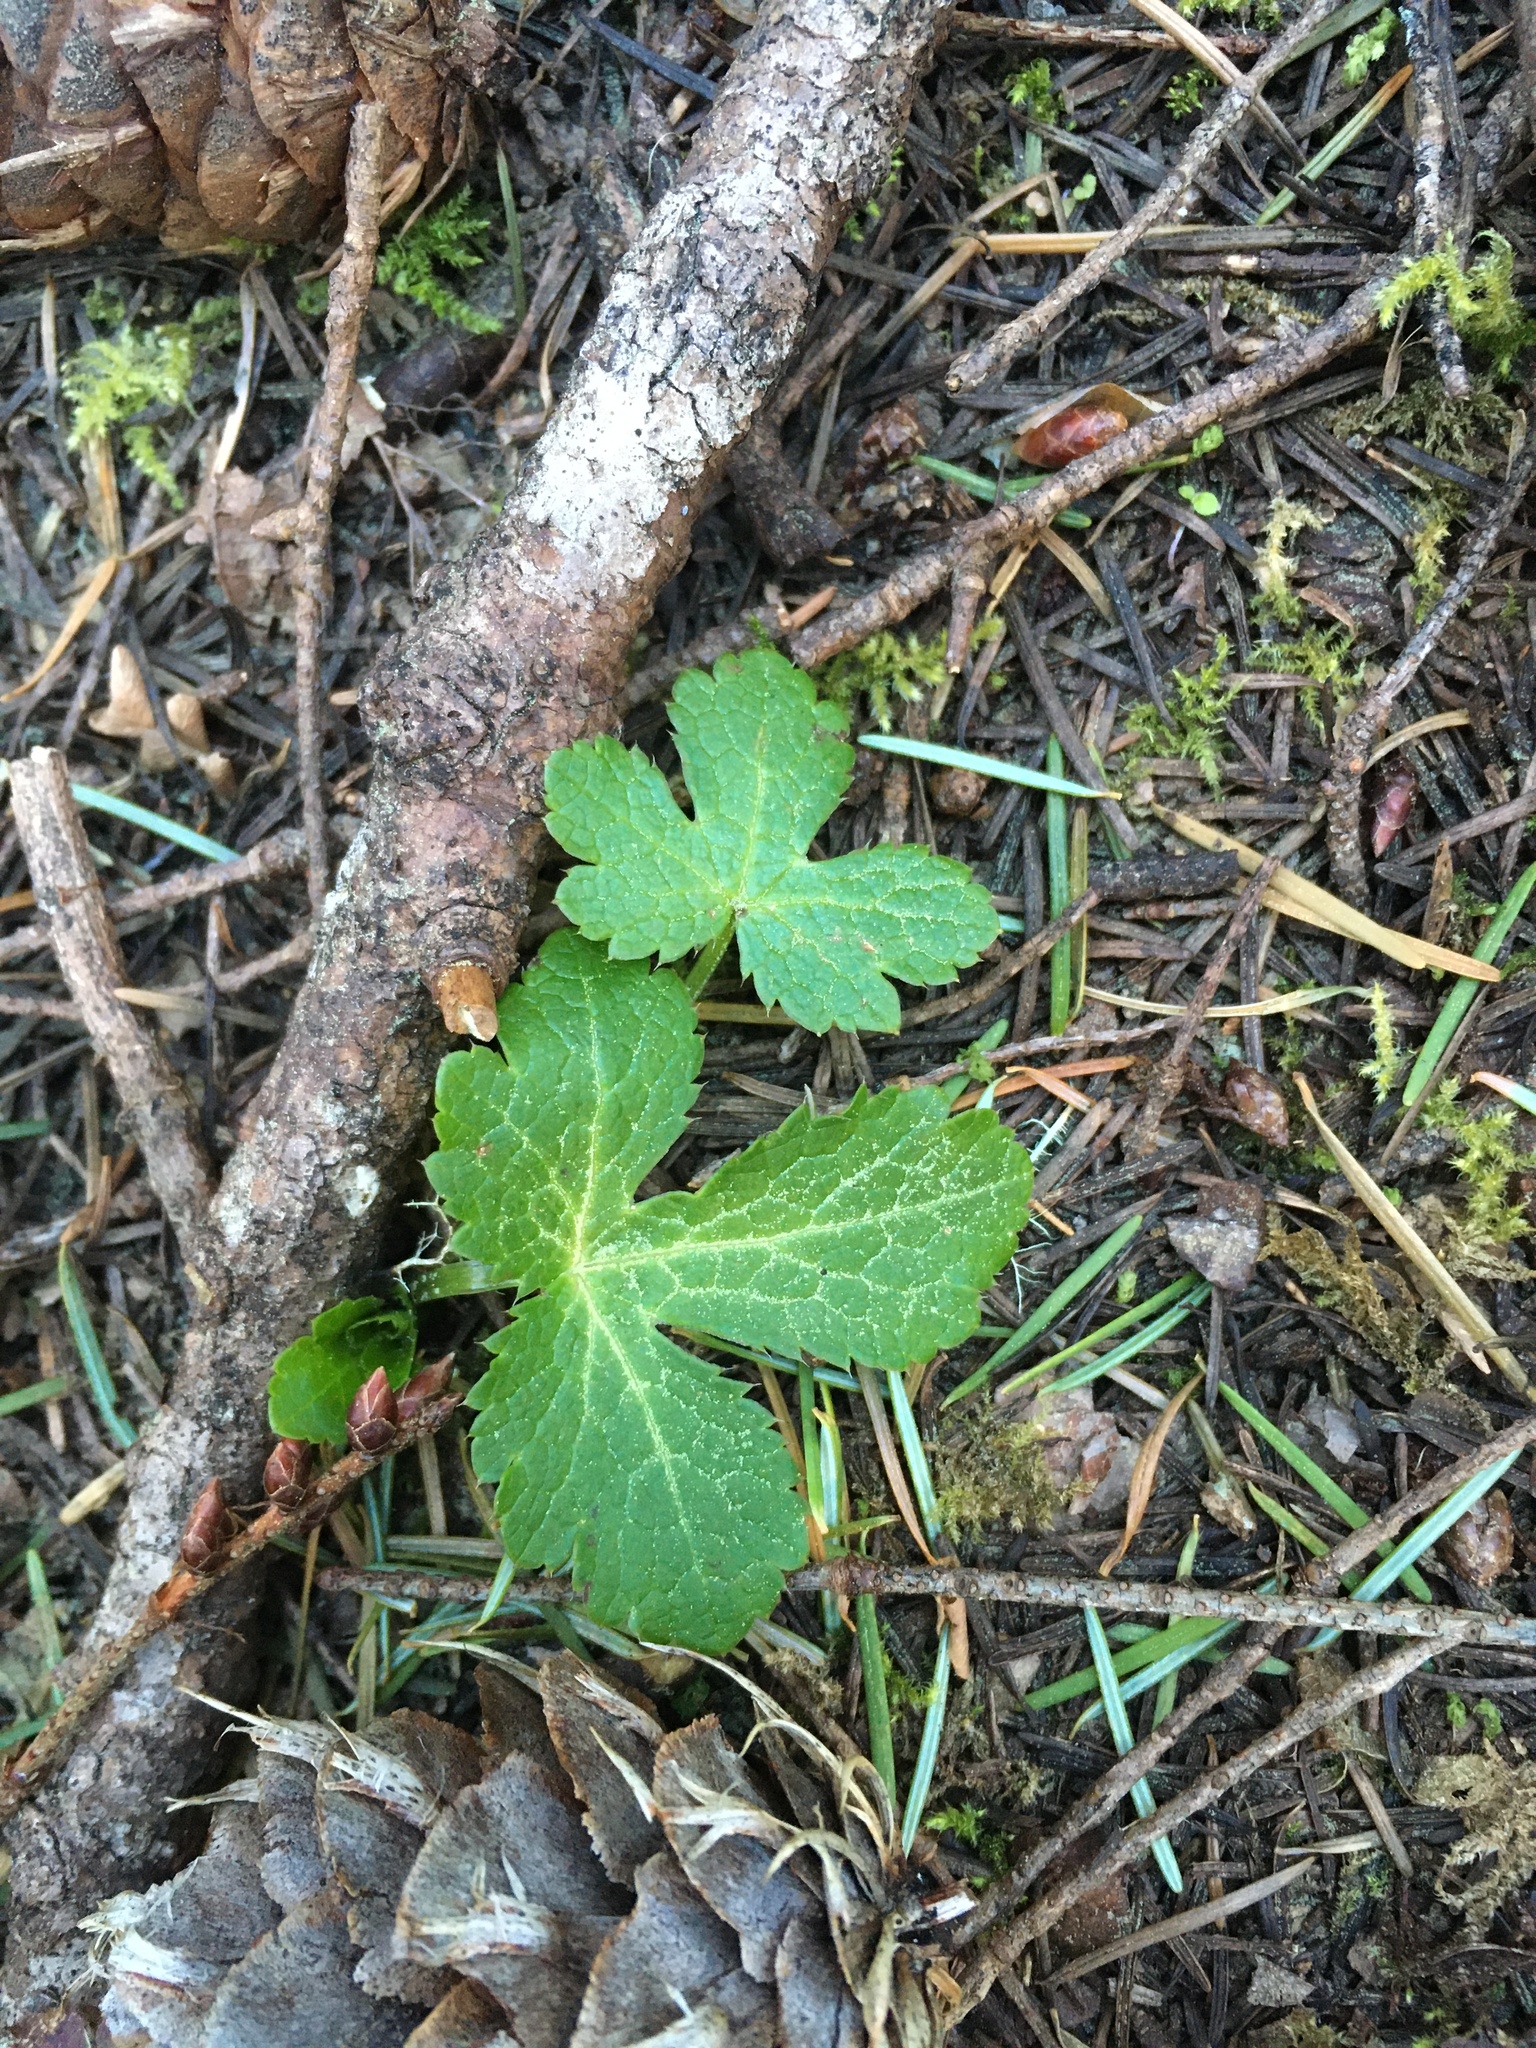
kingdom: Plantae
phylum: Tracheophyta
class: Magnoliopsida
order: Apiales
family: Apiaceae
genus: Sanicula
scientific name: Sanicula crassicaulis
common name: Western snakeroot
